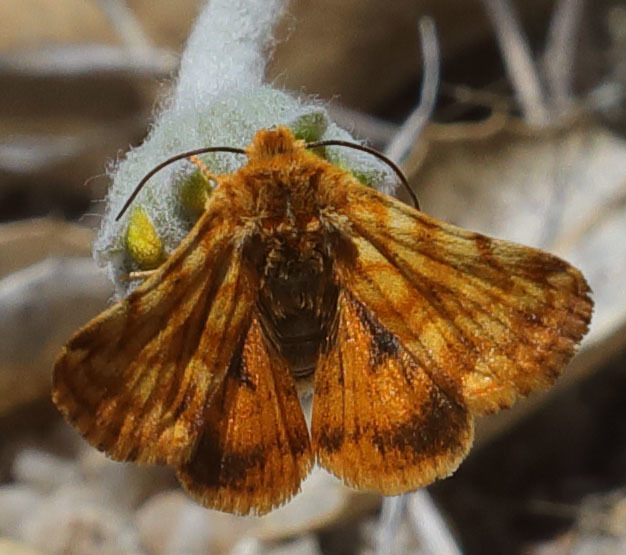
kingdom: Animalia
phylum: Arthropoda
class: Insecta
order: Lepidoptera
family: Noctuidae
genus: Xanthothrix
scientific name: Xanthothrix neumoegeni
